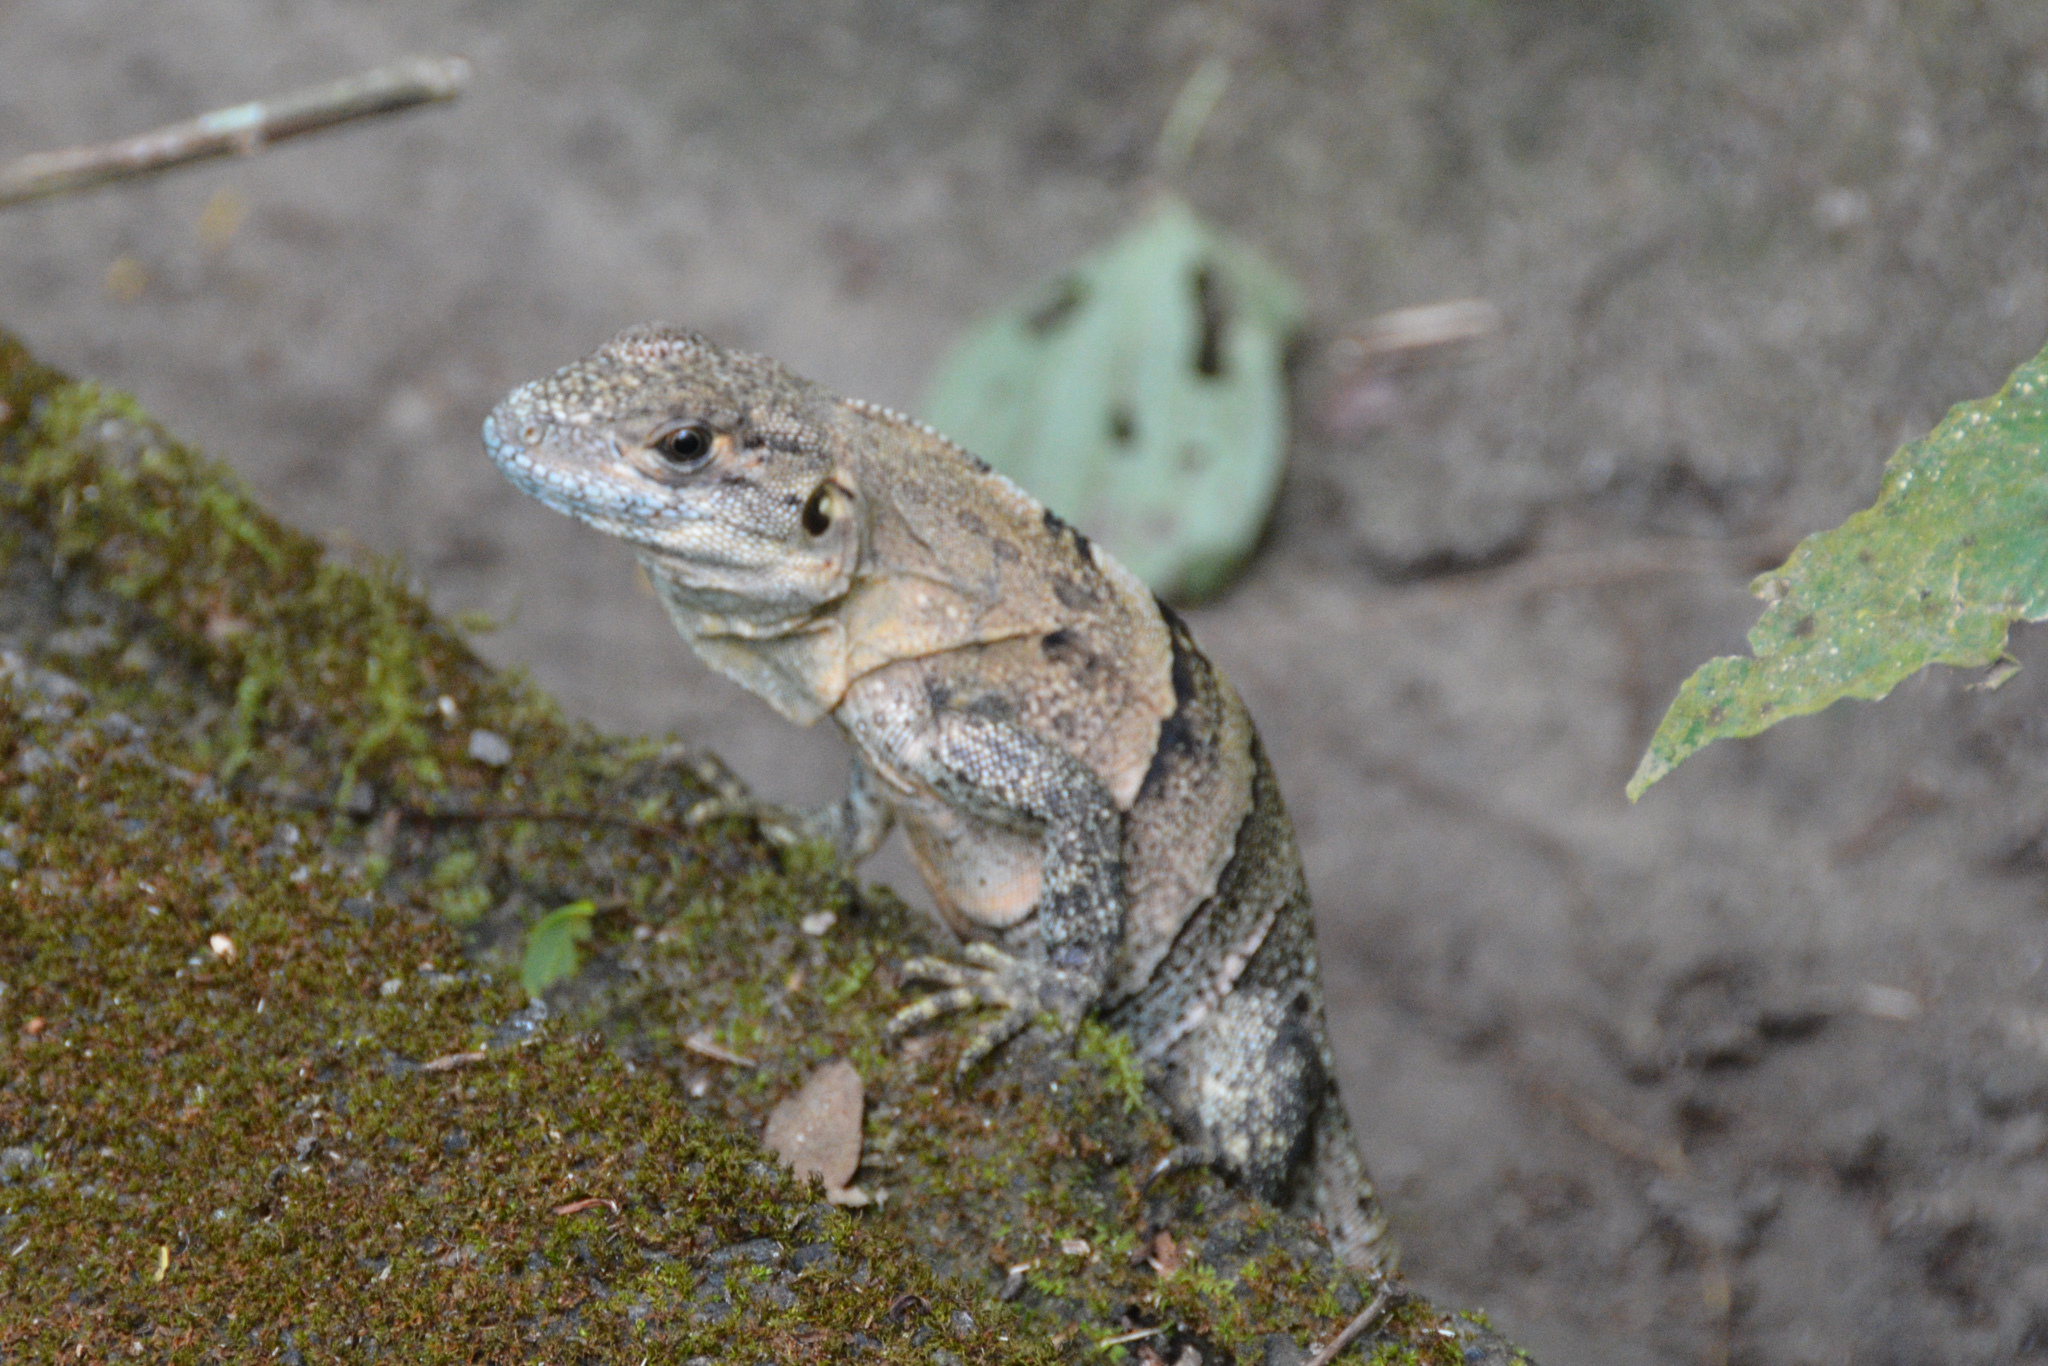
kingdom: Animalia
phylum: Chordata
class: Squamata
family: Iguanidae
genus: Ctenosaura
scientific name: Ctenosaura similis
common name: Black spiny-tailed iguana
